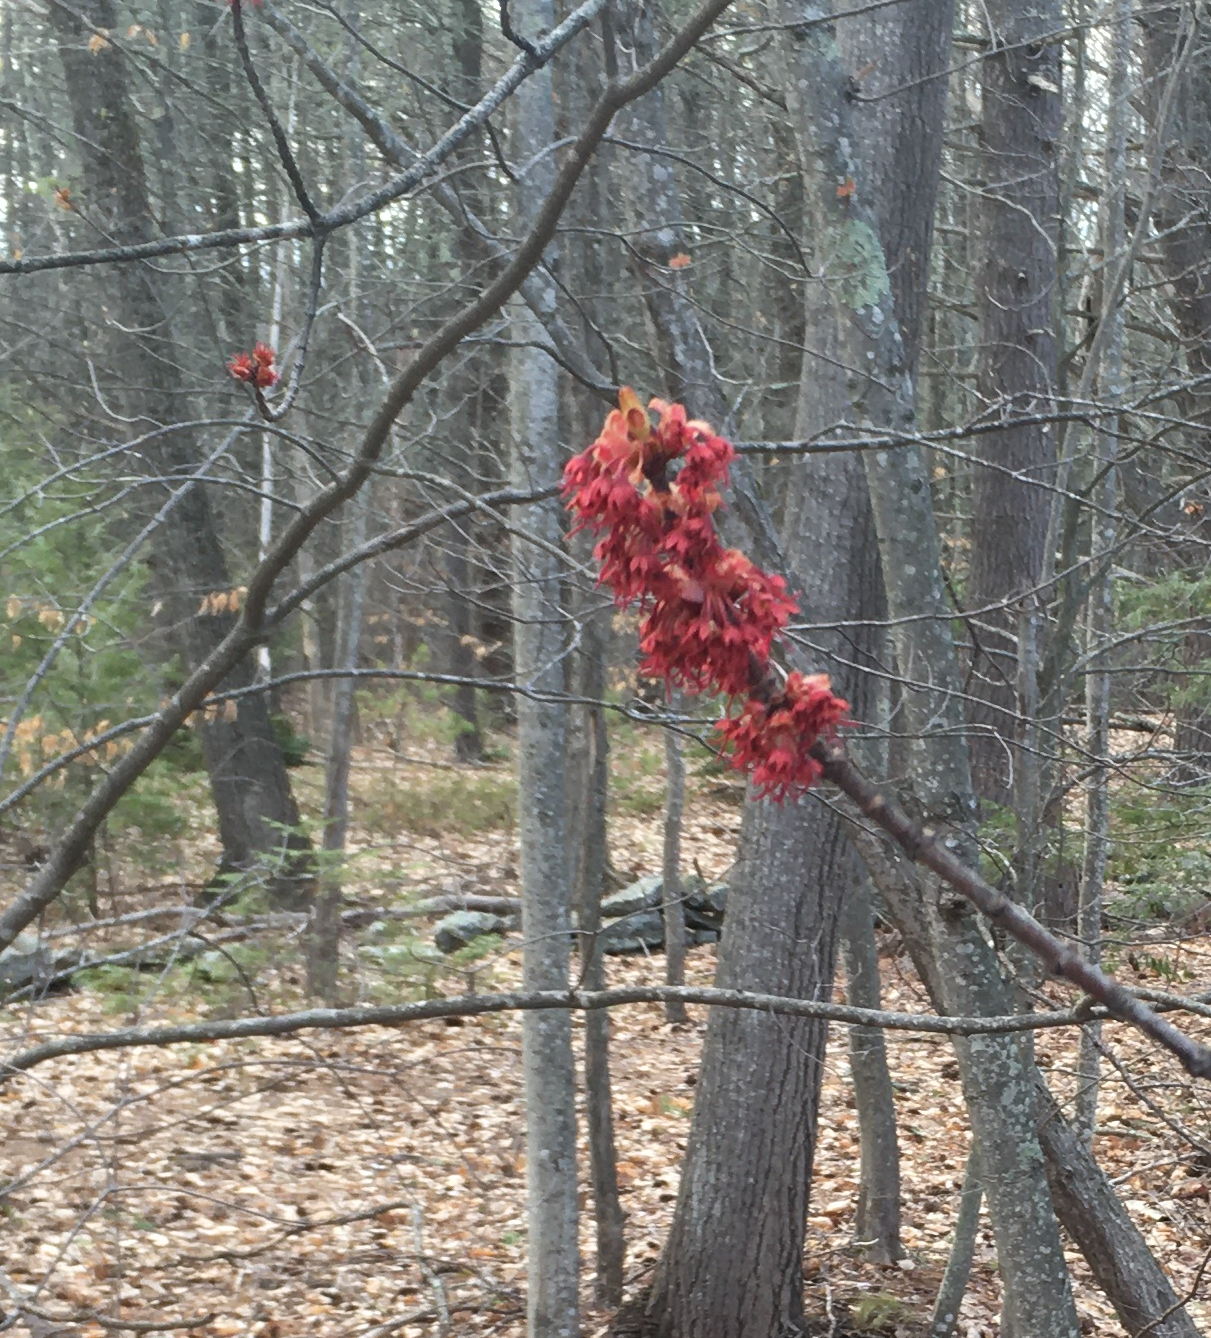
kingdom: Plantae
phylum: Tracheophyta
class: Magnoliopsida
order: Sapindales
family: Sapindaceae
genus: Acer
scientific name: Acer rubrum
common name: Red maple
